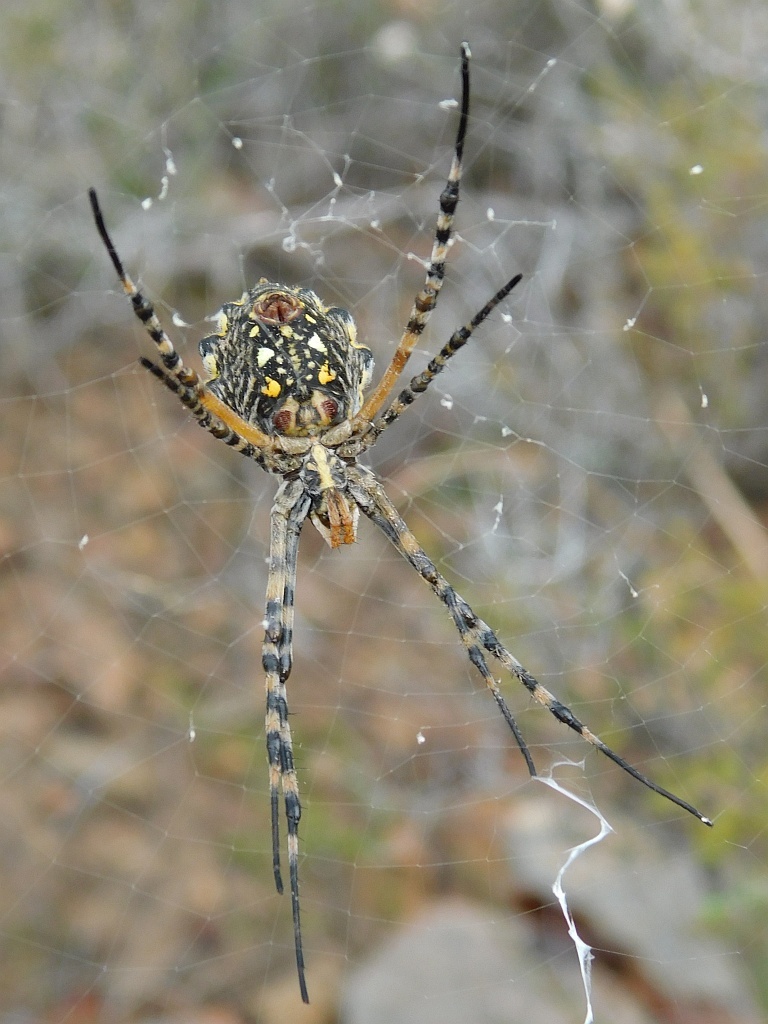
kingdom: Animalia
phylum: Arthropoda
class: Arachnida
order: Araneae
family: Araneidae
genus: Argiope
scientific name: Argiope australis
